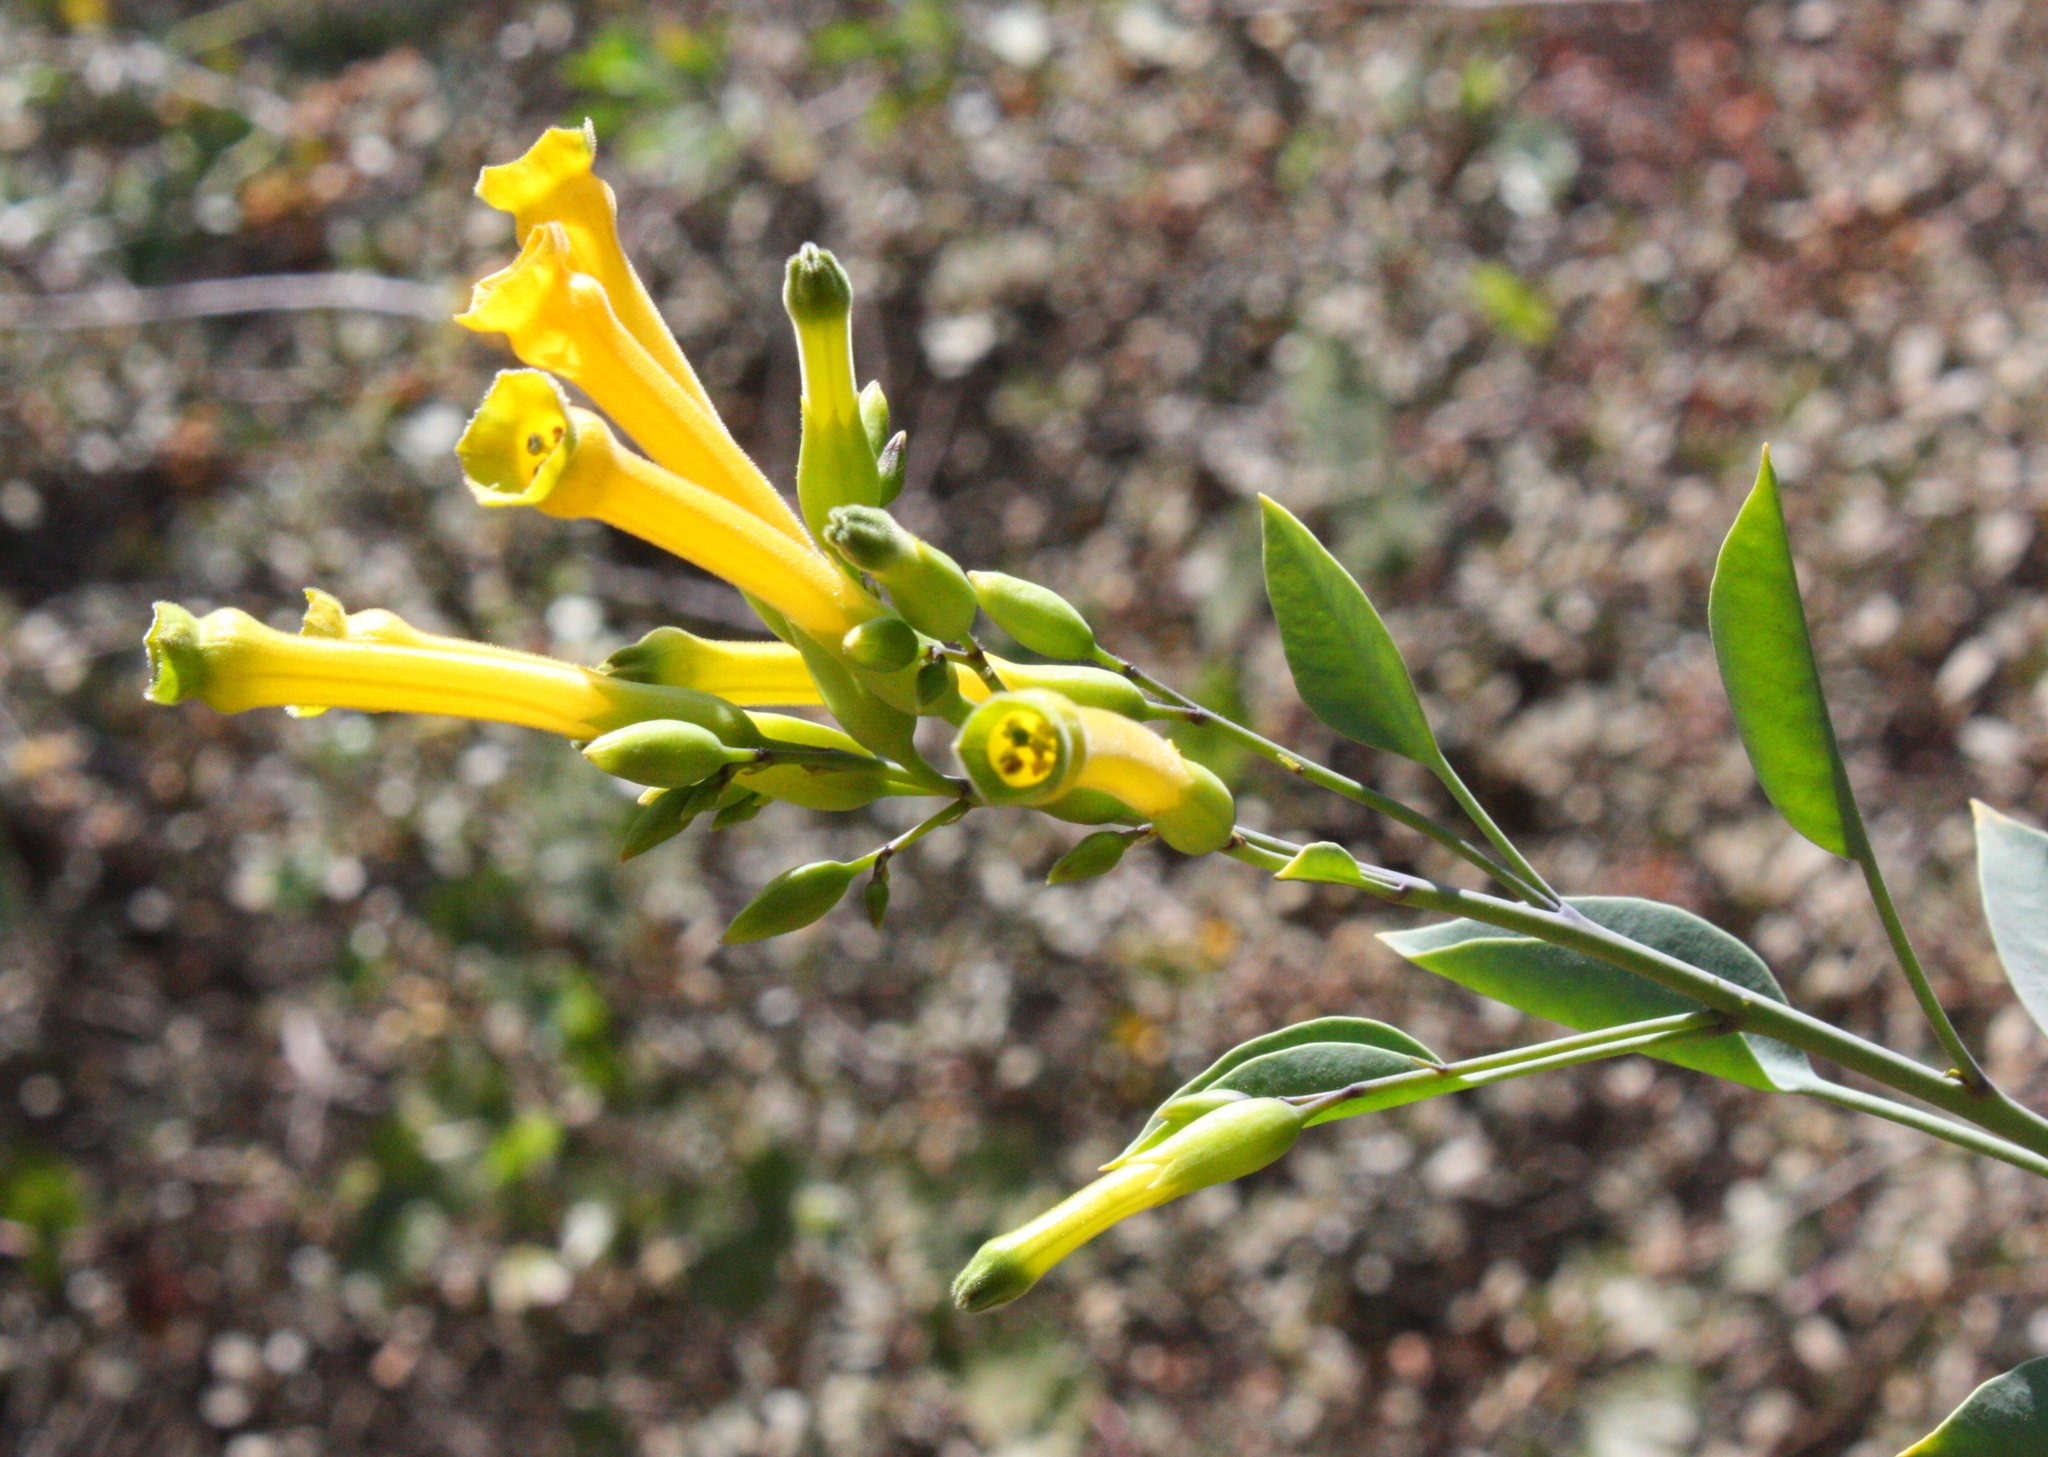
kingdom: Plantae
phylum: Tracheophyta
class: Magnoliopsida
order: Solanales
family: Solanaceae
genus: Nicotiana
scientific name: Nicotiana glauca
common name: Tree tobacco
